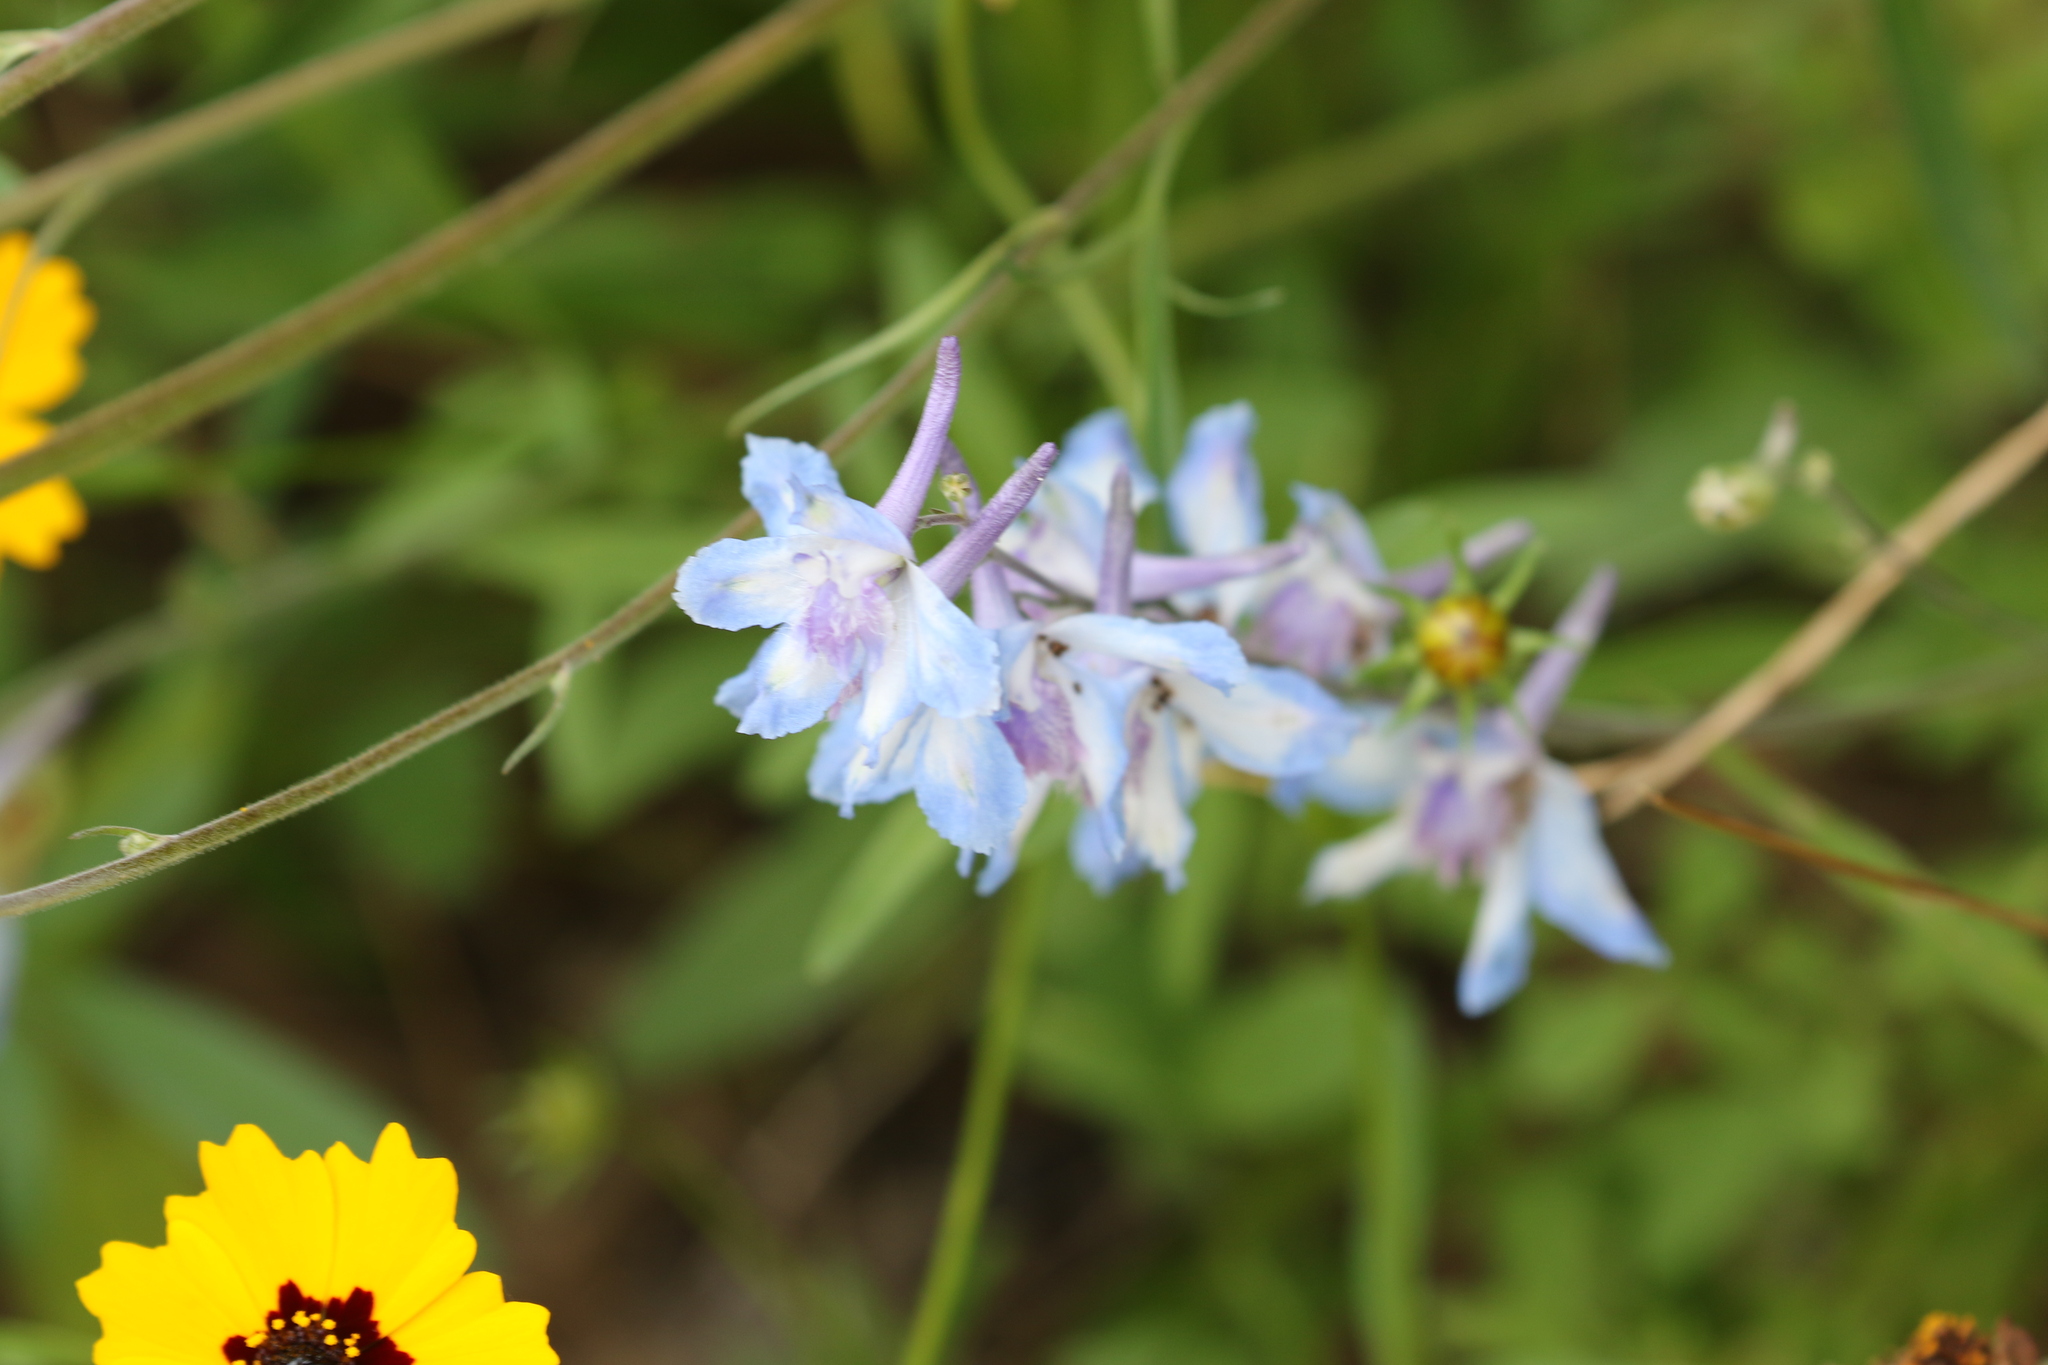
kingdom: Plantae
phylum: Tracheophyta
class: Magnoliopsida
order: Ranunculales
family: Ranunculaceae
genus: Delphinium
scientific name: Delphinium carolinianum
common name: Carolina larkspur
